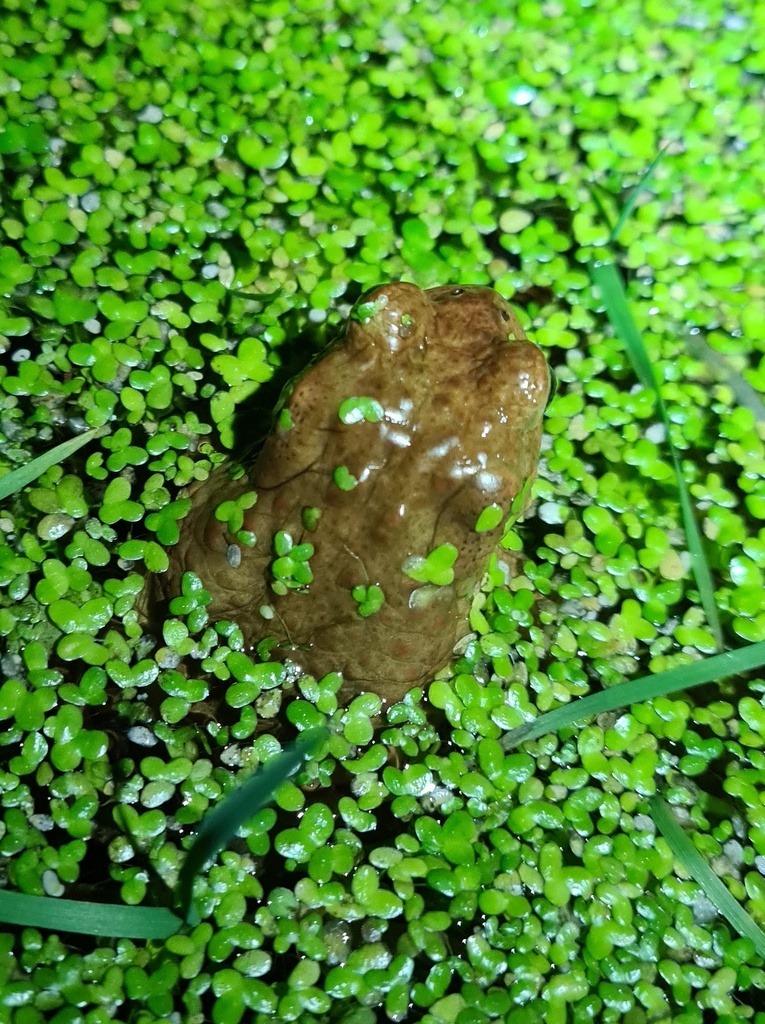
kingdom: Animalia
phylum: Chordata
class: Amphibia
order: Anura
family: Bufonidae
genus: Bufo
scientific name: Bufo bufo
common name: Common toad
